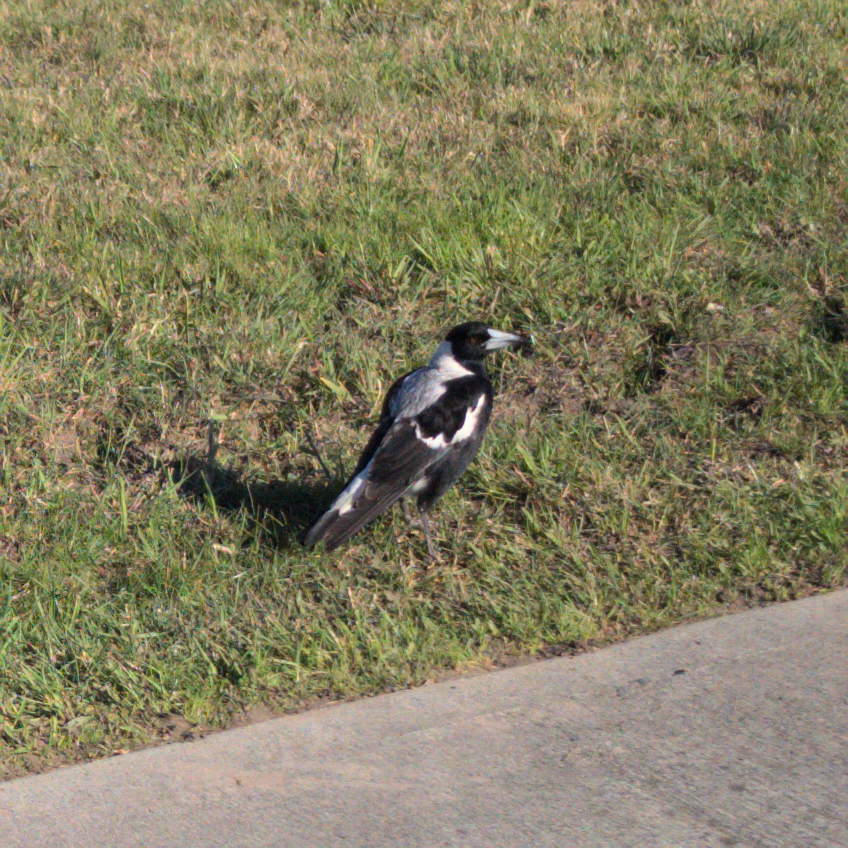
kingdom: Animalia
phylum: Chordata
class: Aves
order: Passeriformes
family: Cracticidae
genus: Gymnorhina
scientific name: Gymnorhina tibicen
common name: Australian magpie
